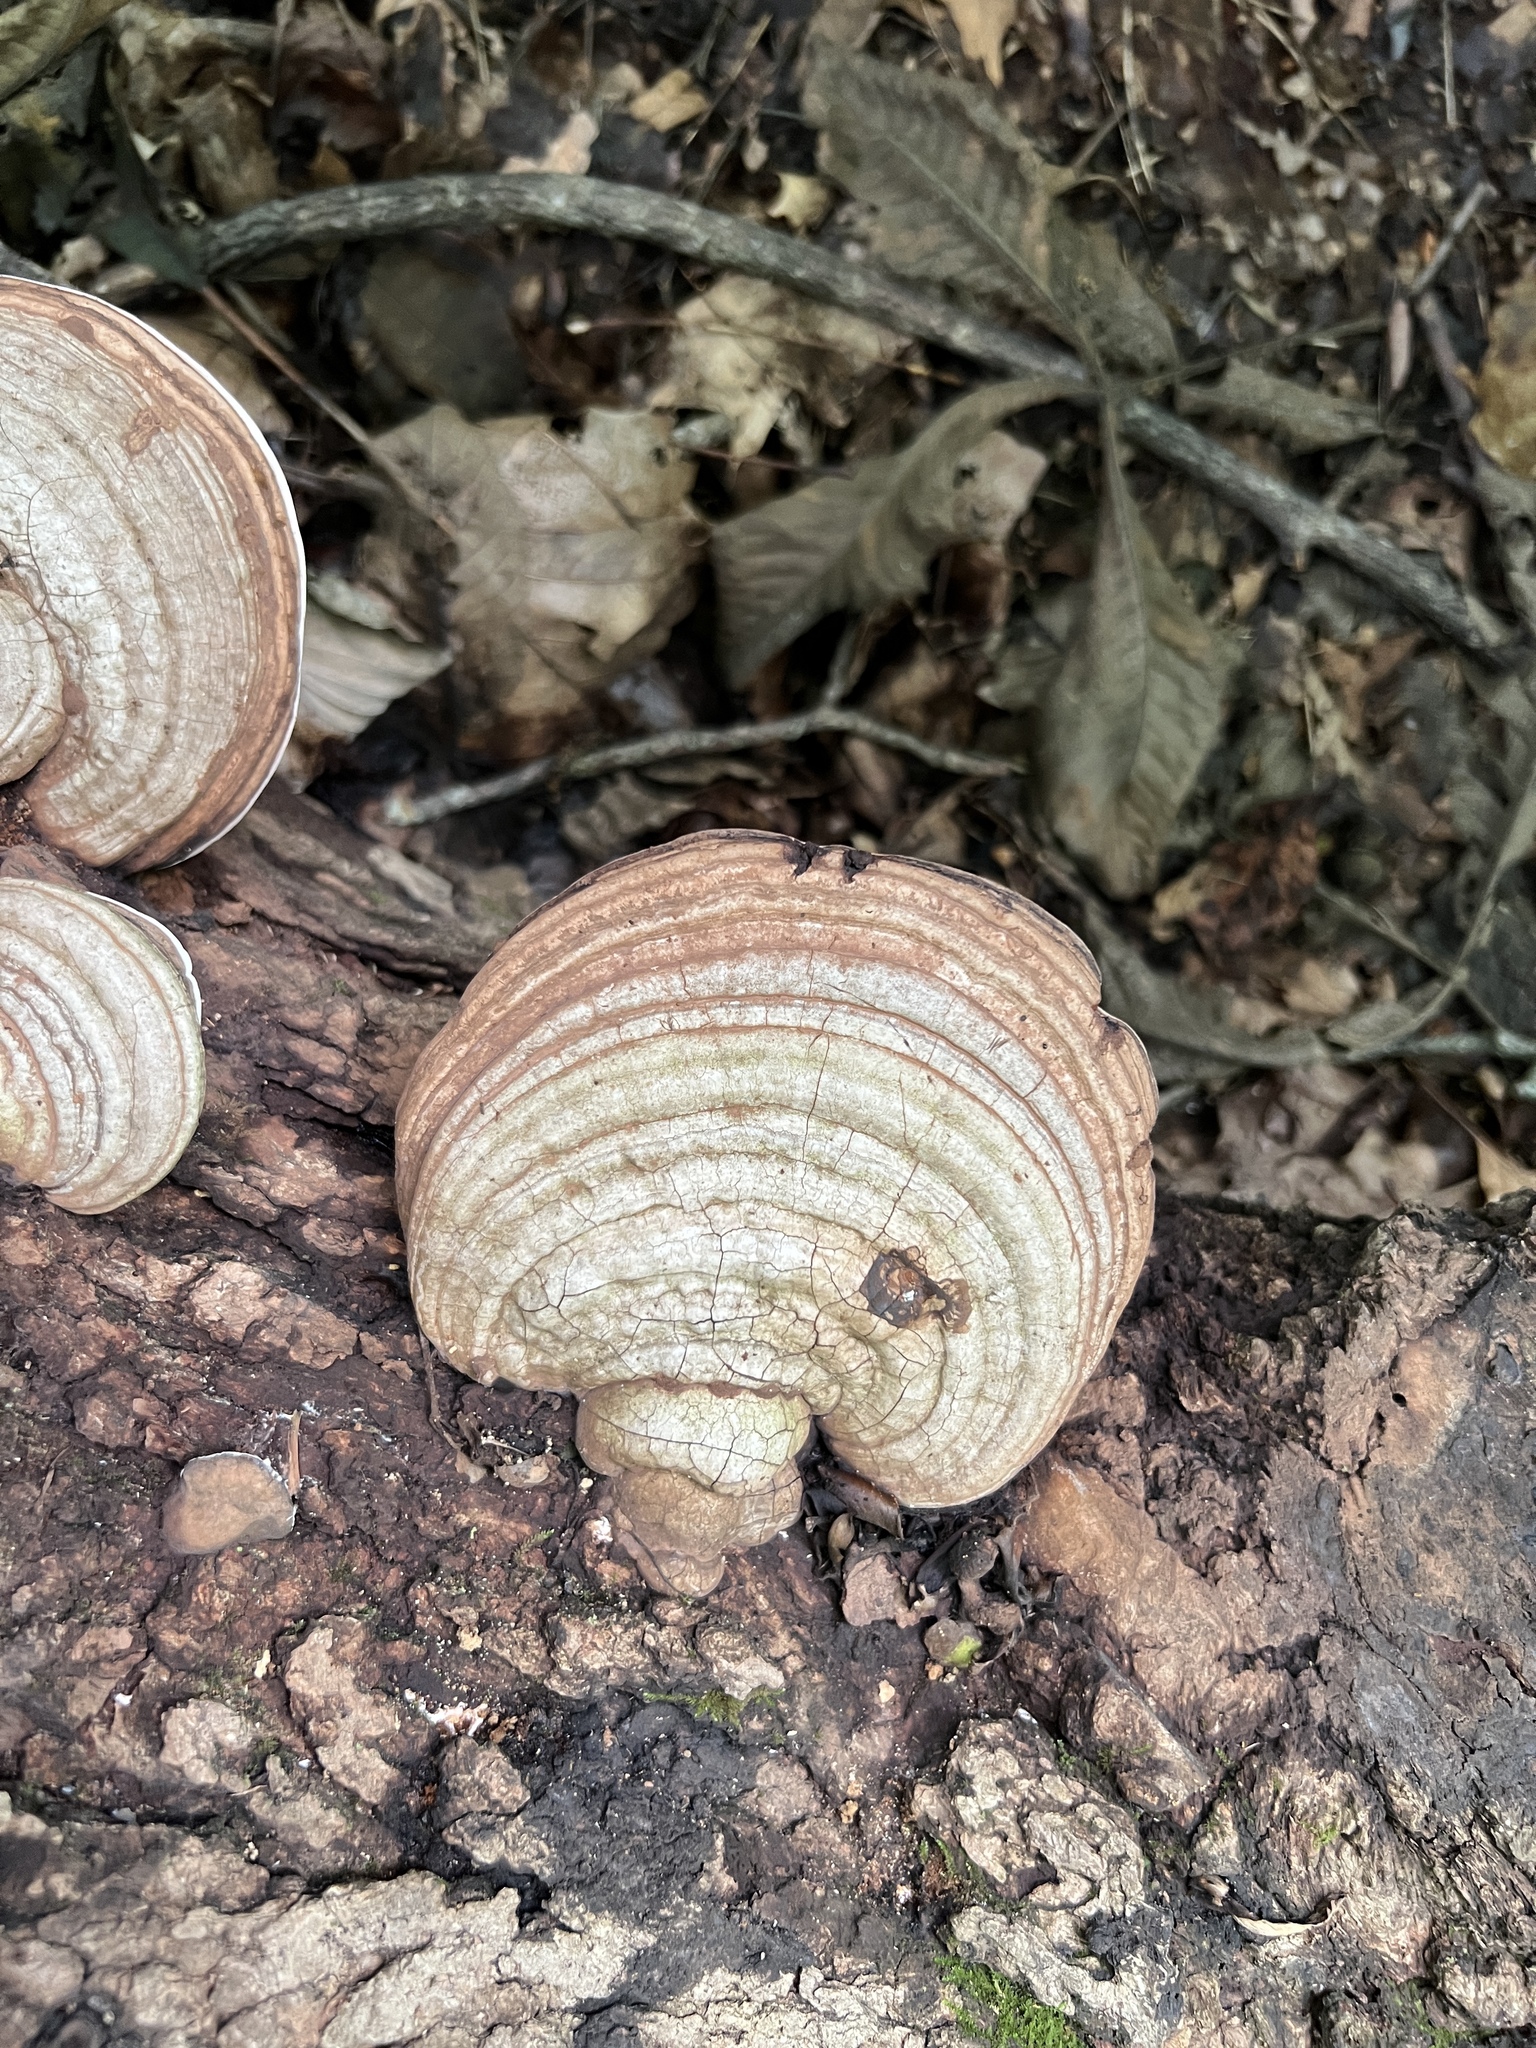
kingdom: Fungi
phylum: Basidiomycota
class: Agaricomycetes
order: Polyporales
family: Polyporaceae
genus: Ganoderma
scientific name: Ganoderma applanatum
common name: Artist's bracket
